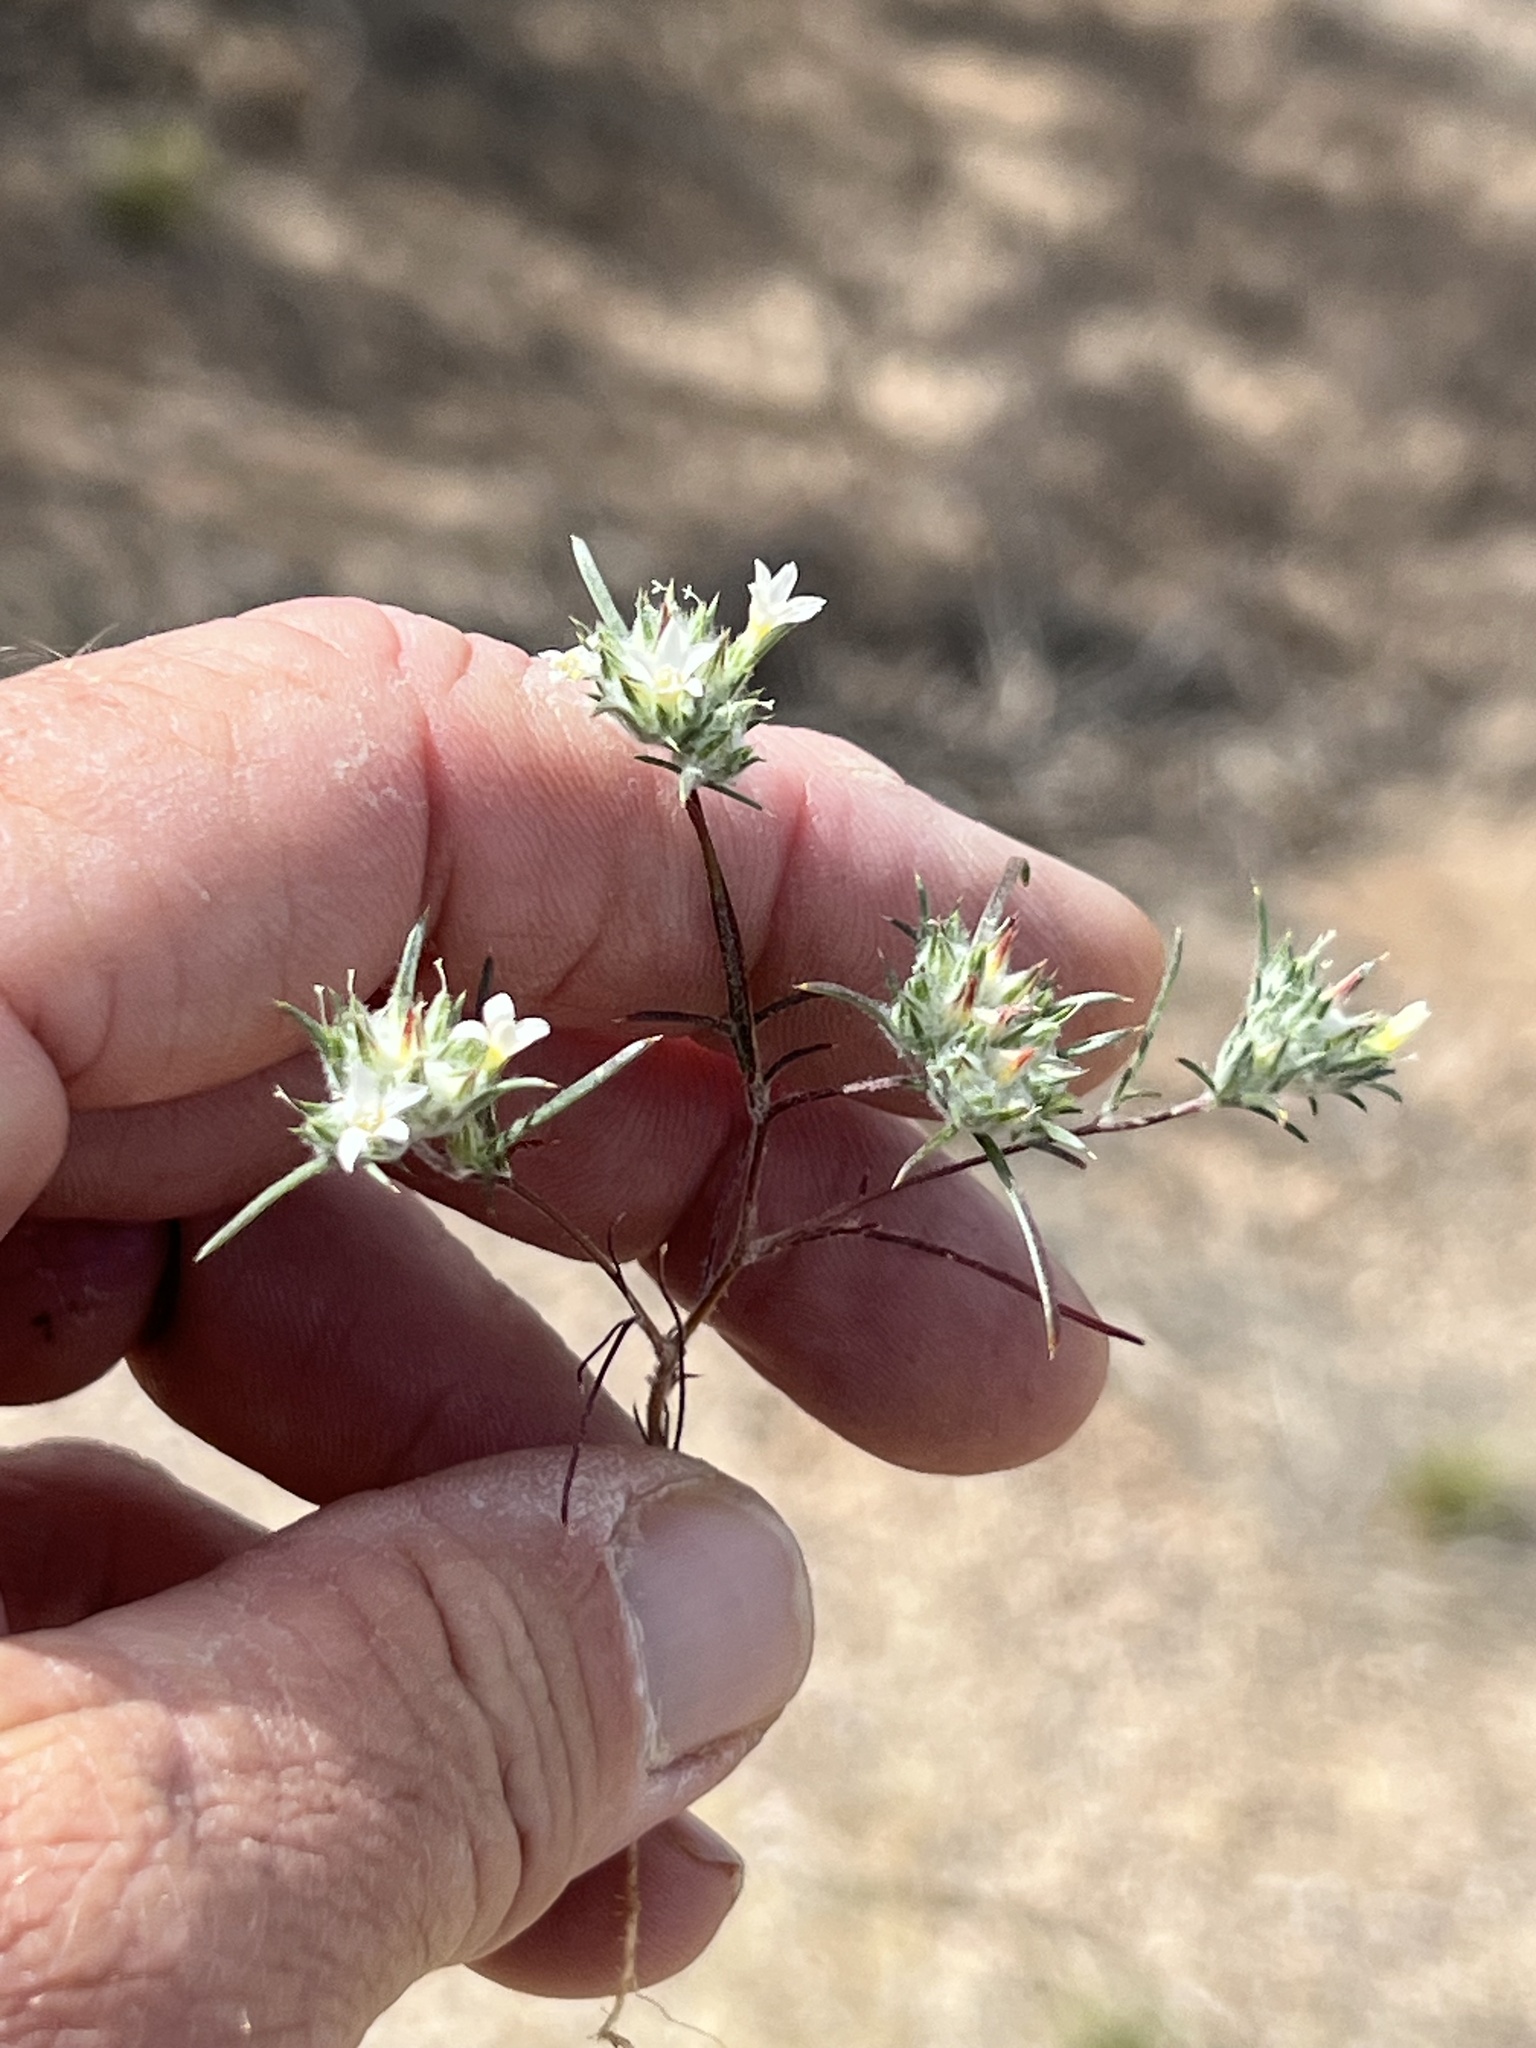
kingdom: Plantae
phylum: Tracheophyta
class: Magnoliopsida
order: Ericales
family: Polemoniaceae
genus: Eriastrum
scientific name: Eriastrum diffusum
